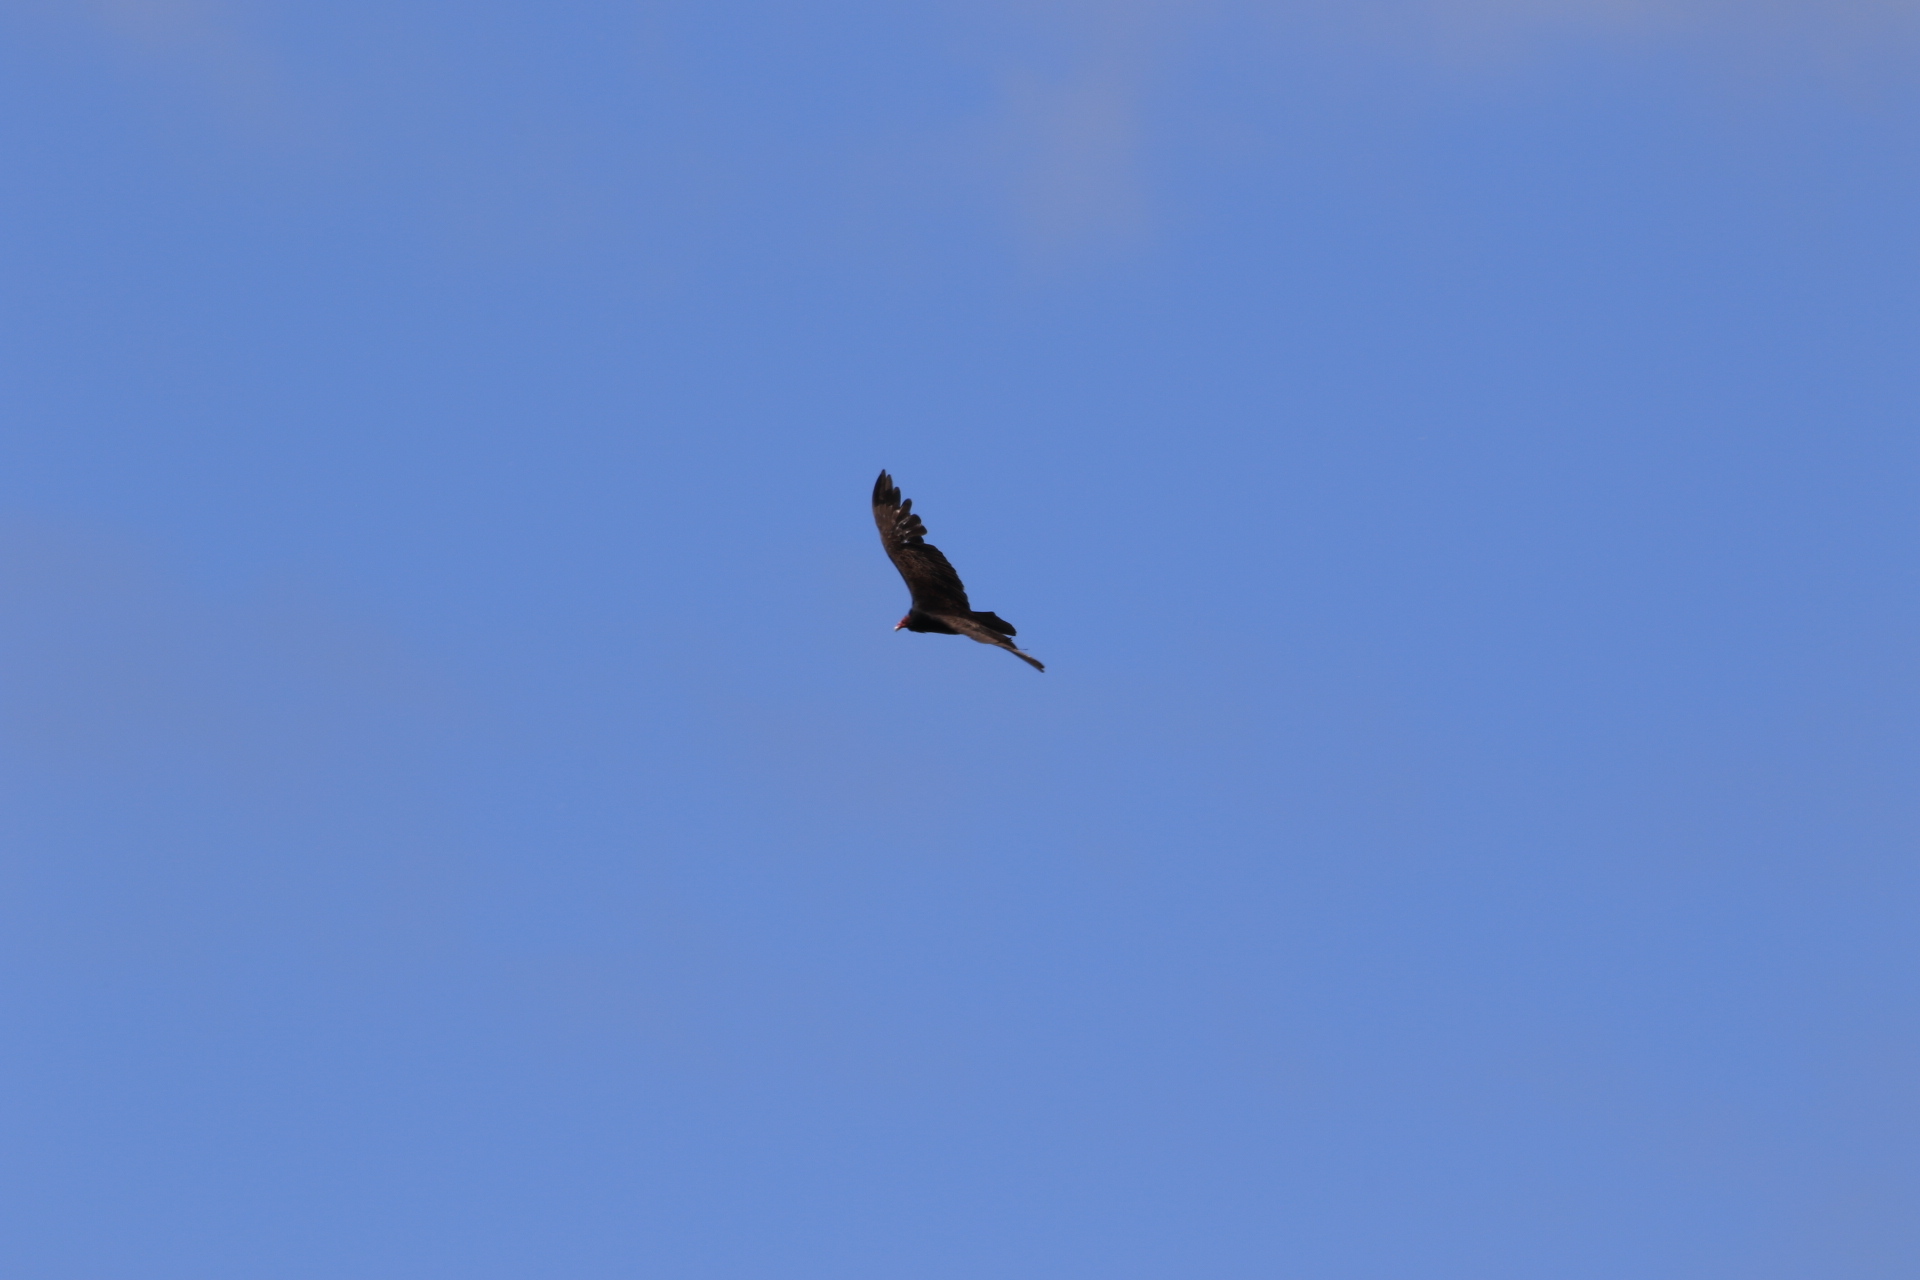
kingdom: Animalia
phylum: Chordata
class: Aves
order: Accipitriformes
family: Cathartidae
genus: Cathartes
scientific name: Cathartes aura
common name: Turkey vulture
